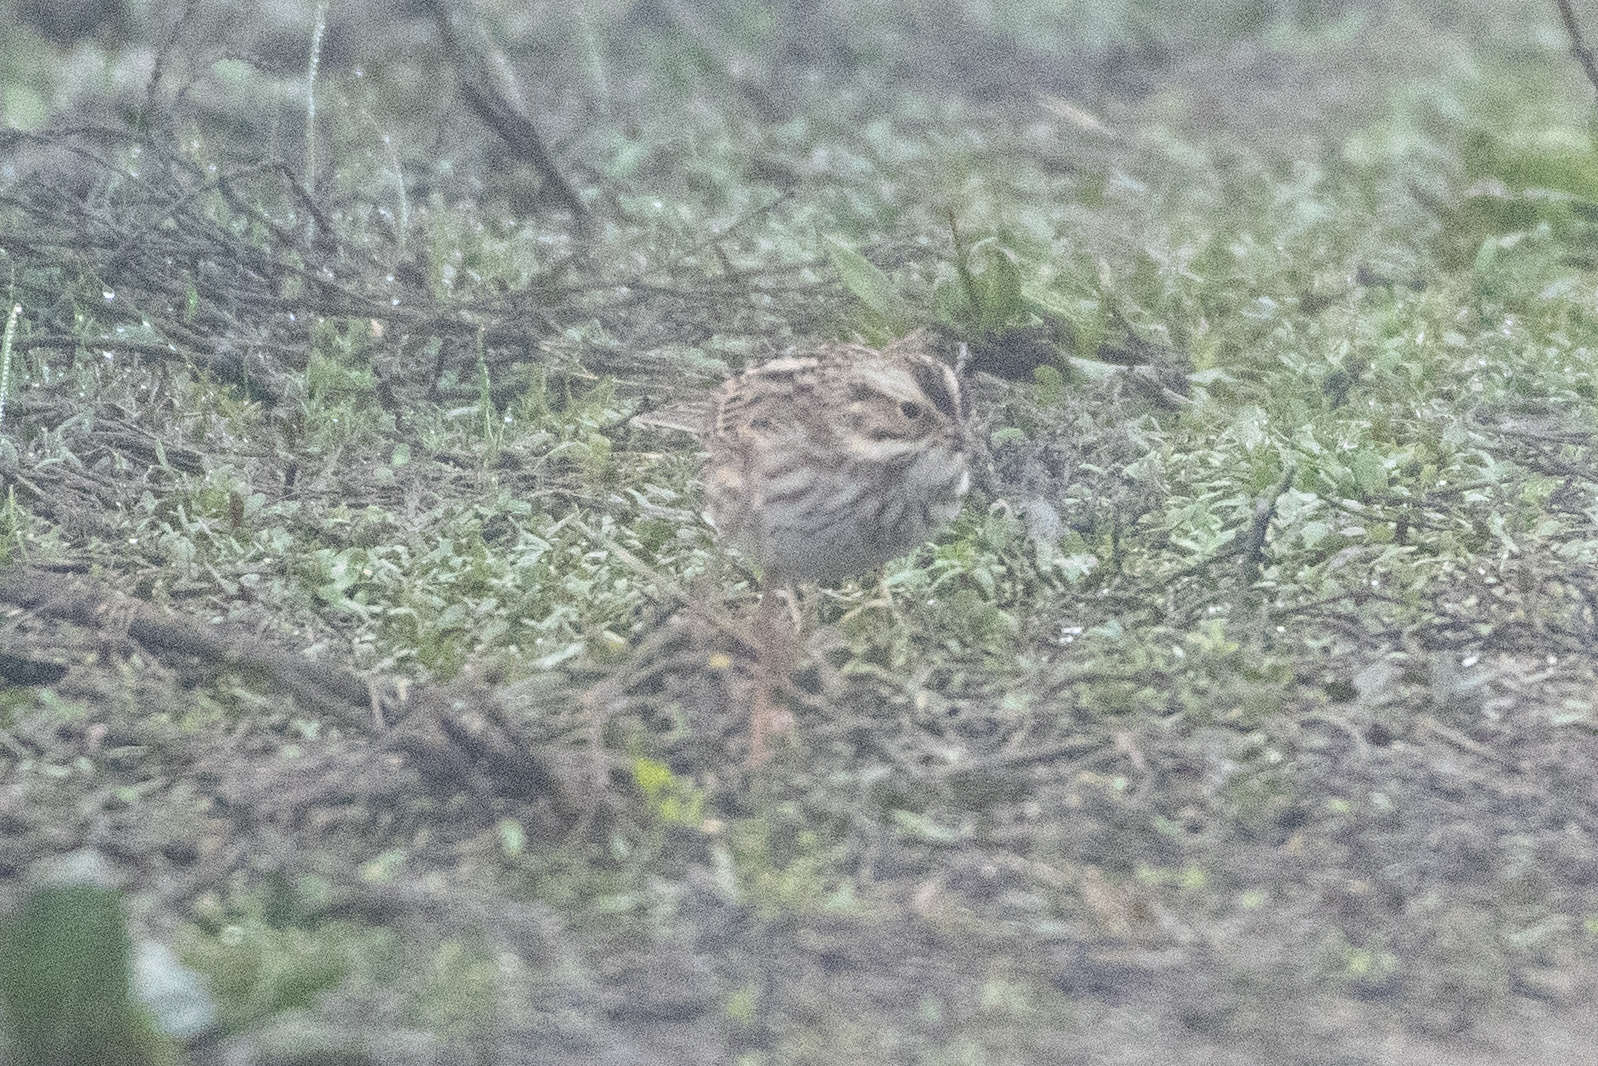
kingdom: Animalia
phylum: Chordata
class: Aves
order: Passeriformes
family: Passerellidae
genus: Passerculus
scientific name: Passerculus sandwichensis
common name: Savannah sparrow
